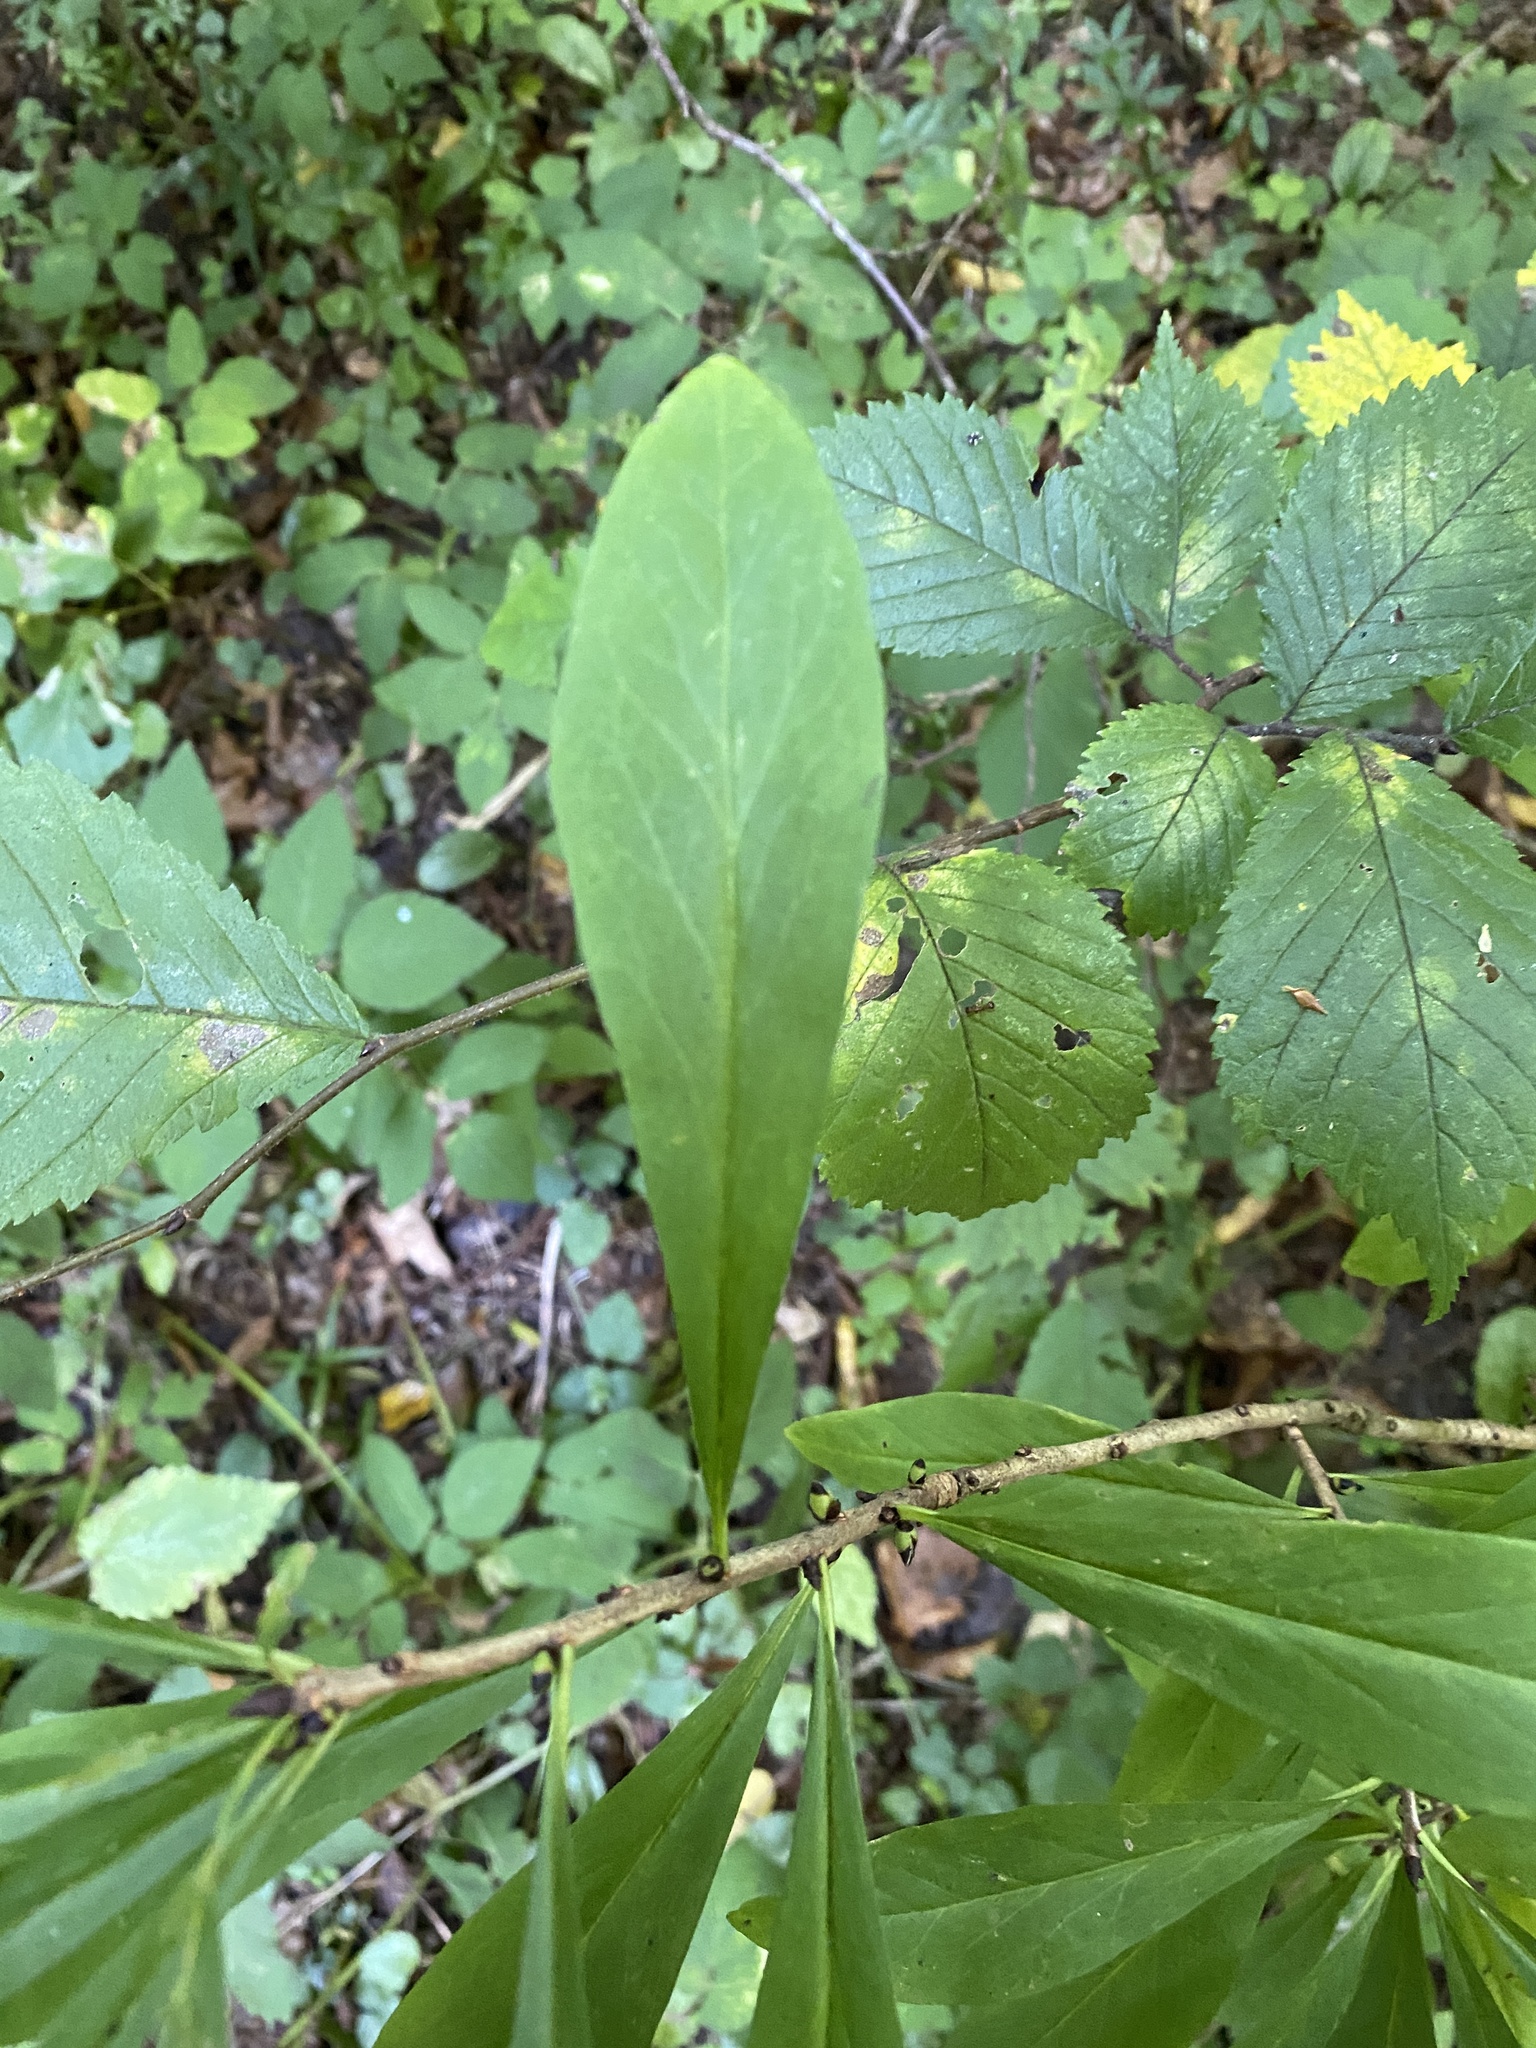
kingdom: Plantae
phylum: Tracheophyta
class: Magnoliopsida
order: Malvales
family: Thymelaeaceae
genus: Daphne
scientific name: Daphne mezereum
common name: Mezereon
